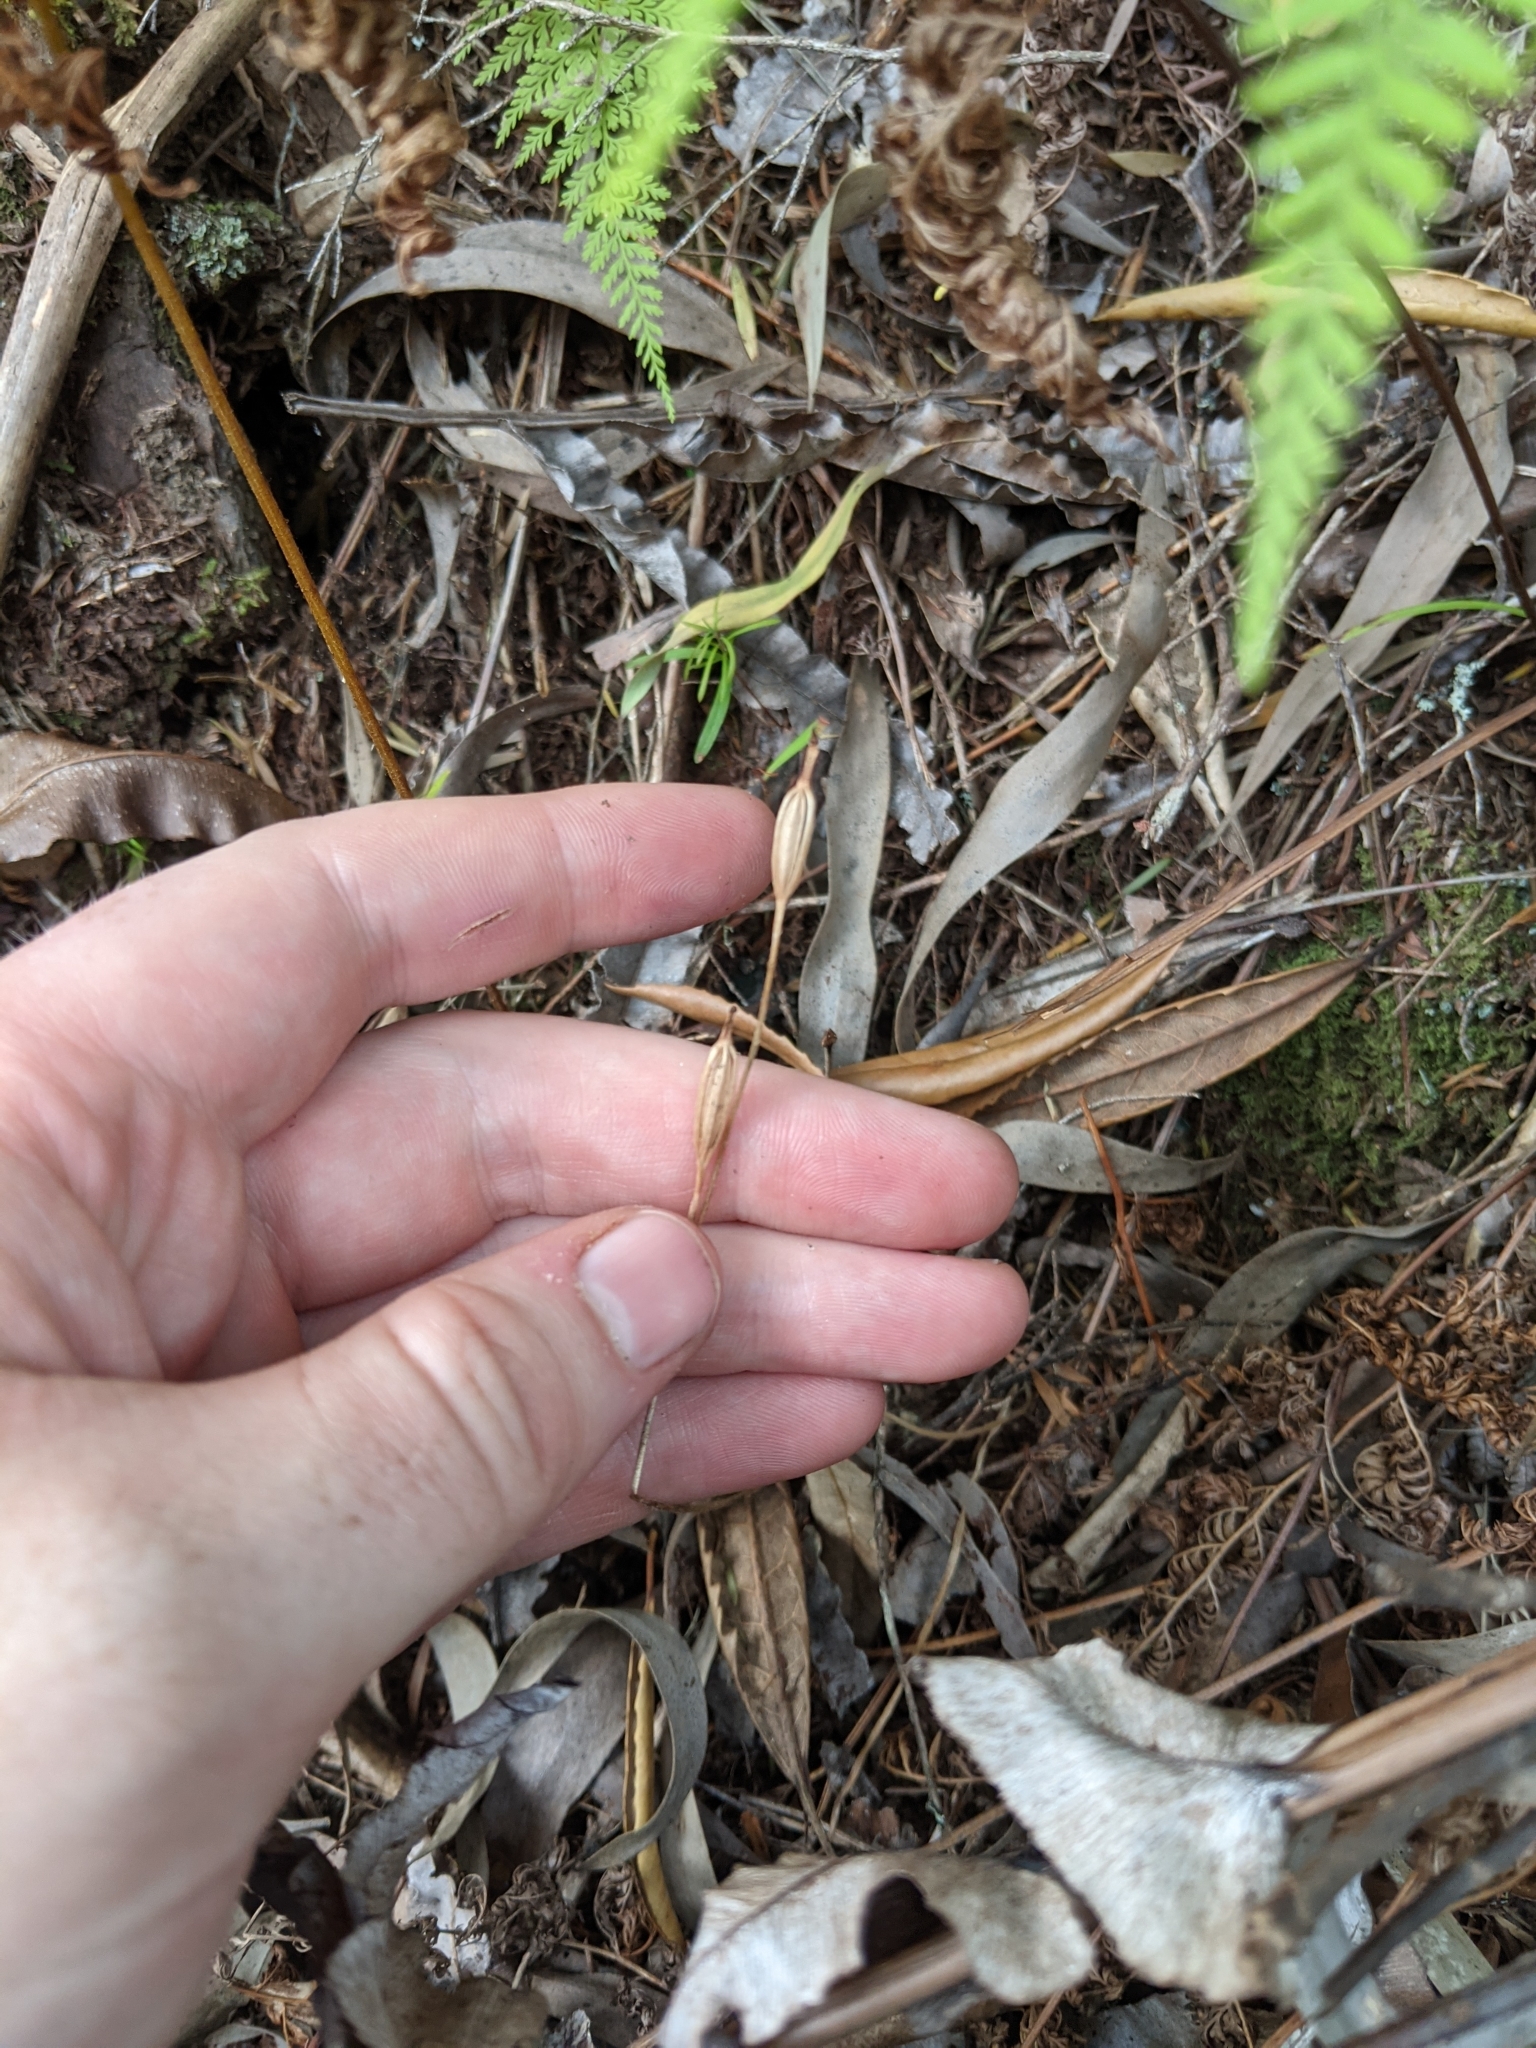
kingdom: Plantae
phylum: Tracheophyta
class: Liliopsida
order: Asparagales
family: Orchidaceae
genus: Caladenia
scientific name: Caladenia chlorostyla
